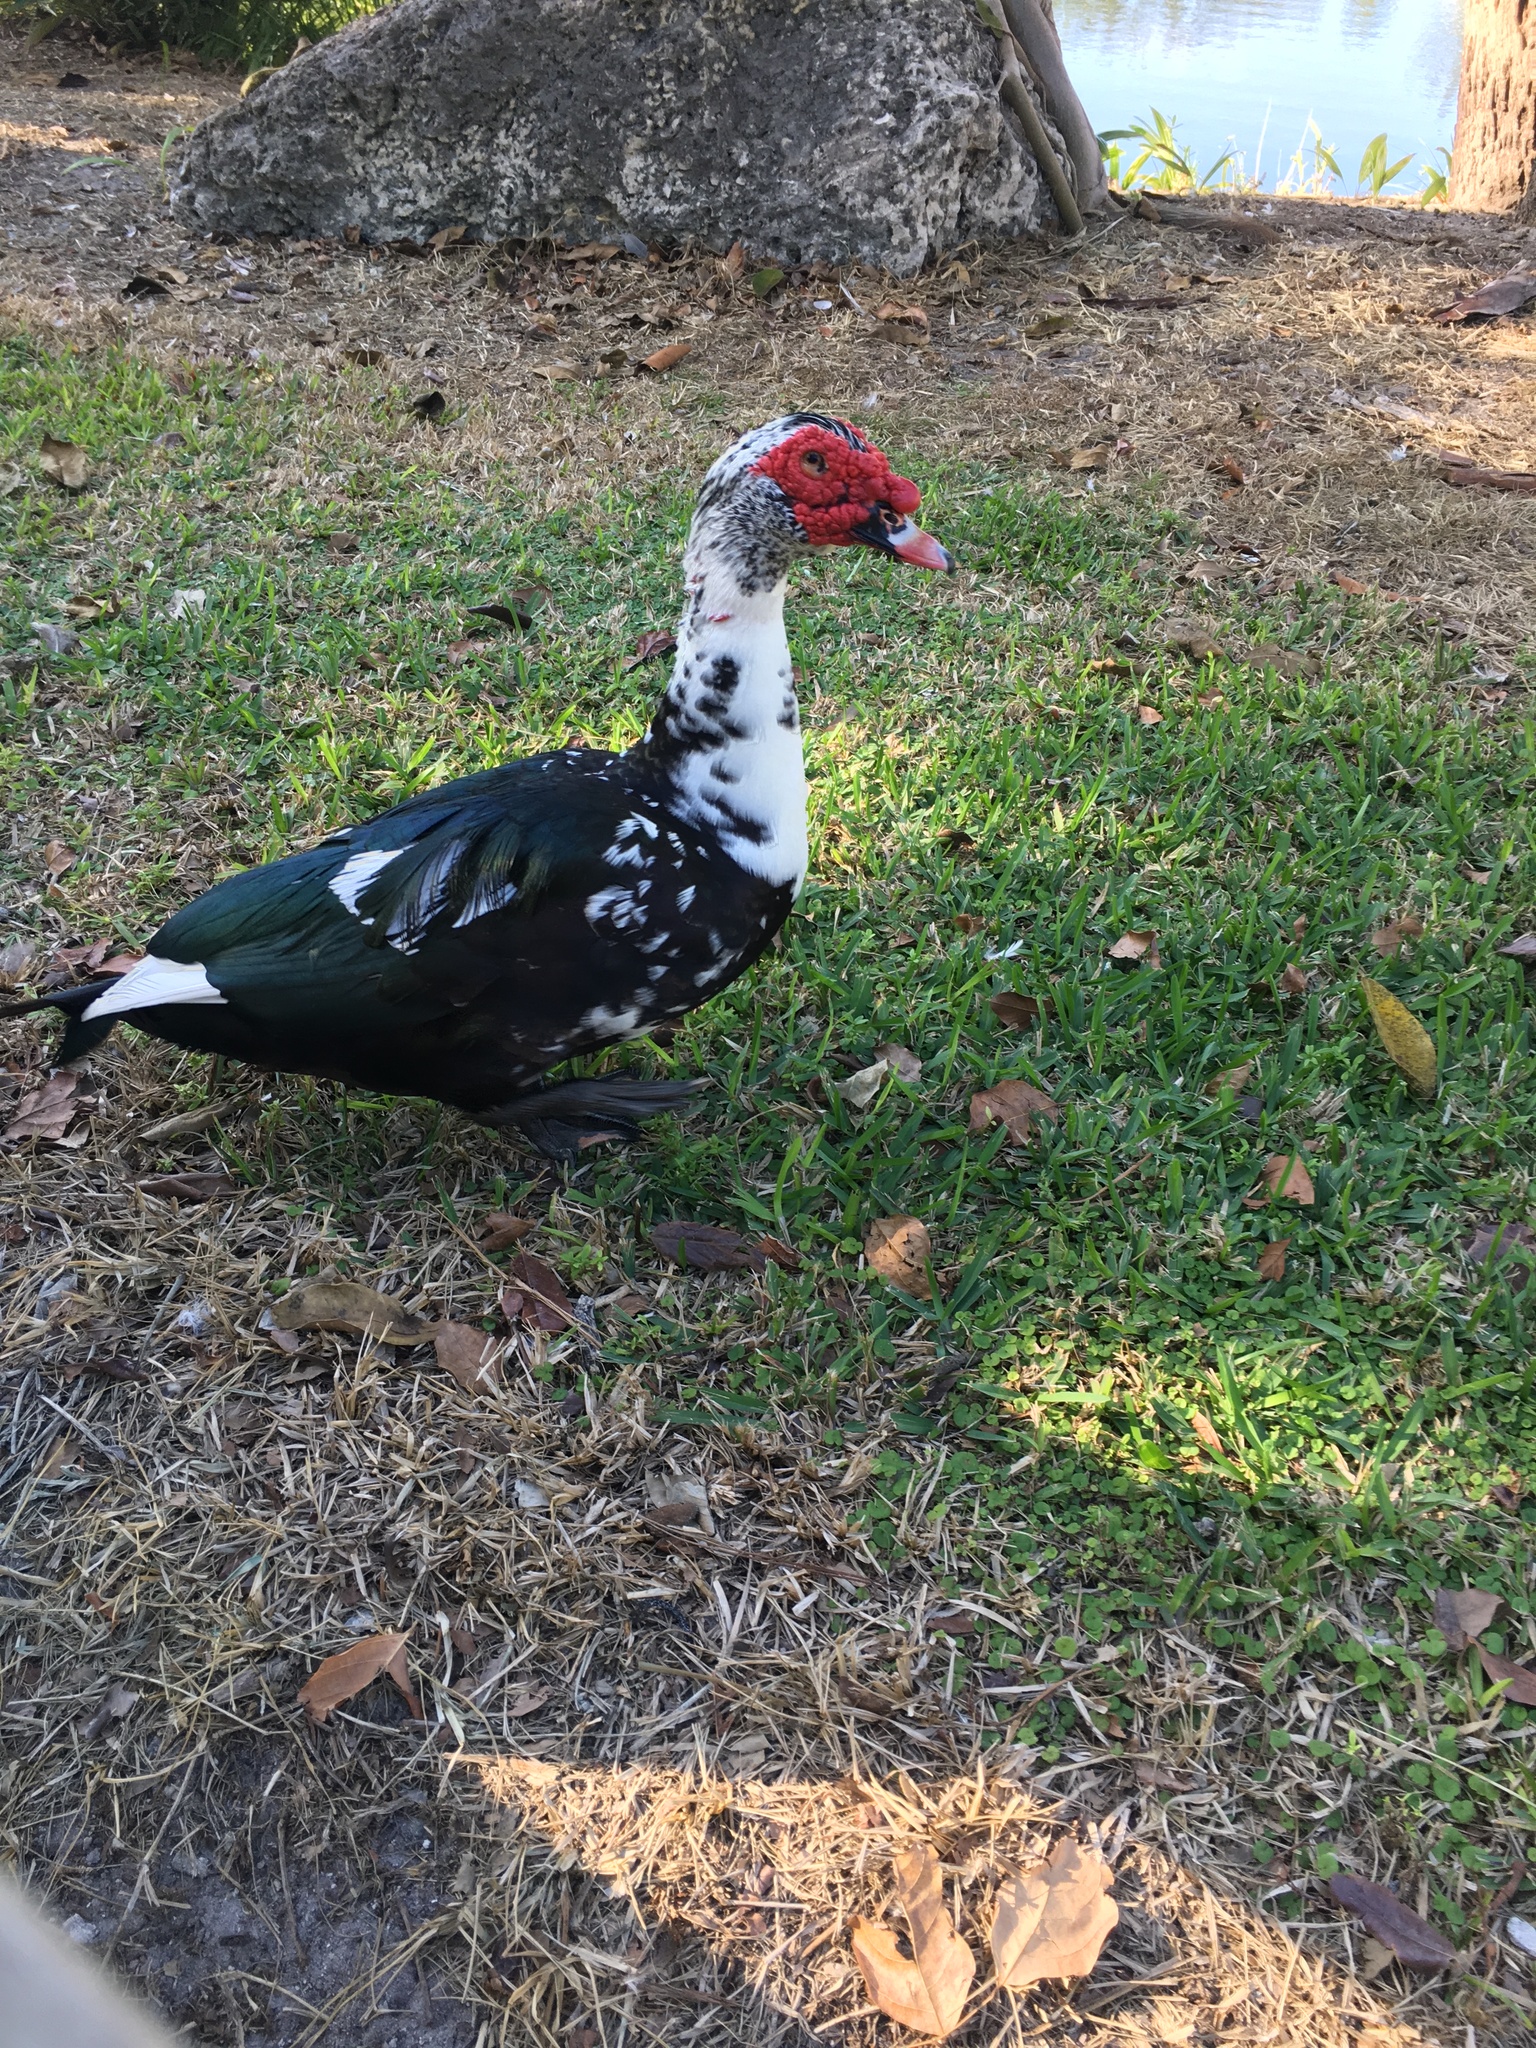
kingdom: Animalia
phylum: Chordata
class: Aves
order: Anseriformes
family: Anatidae
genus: Cairina
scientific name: Cairina moschata
